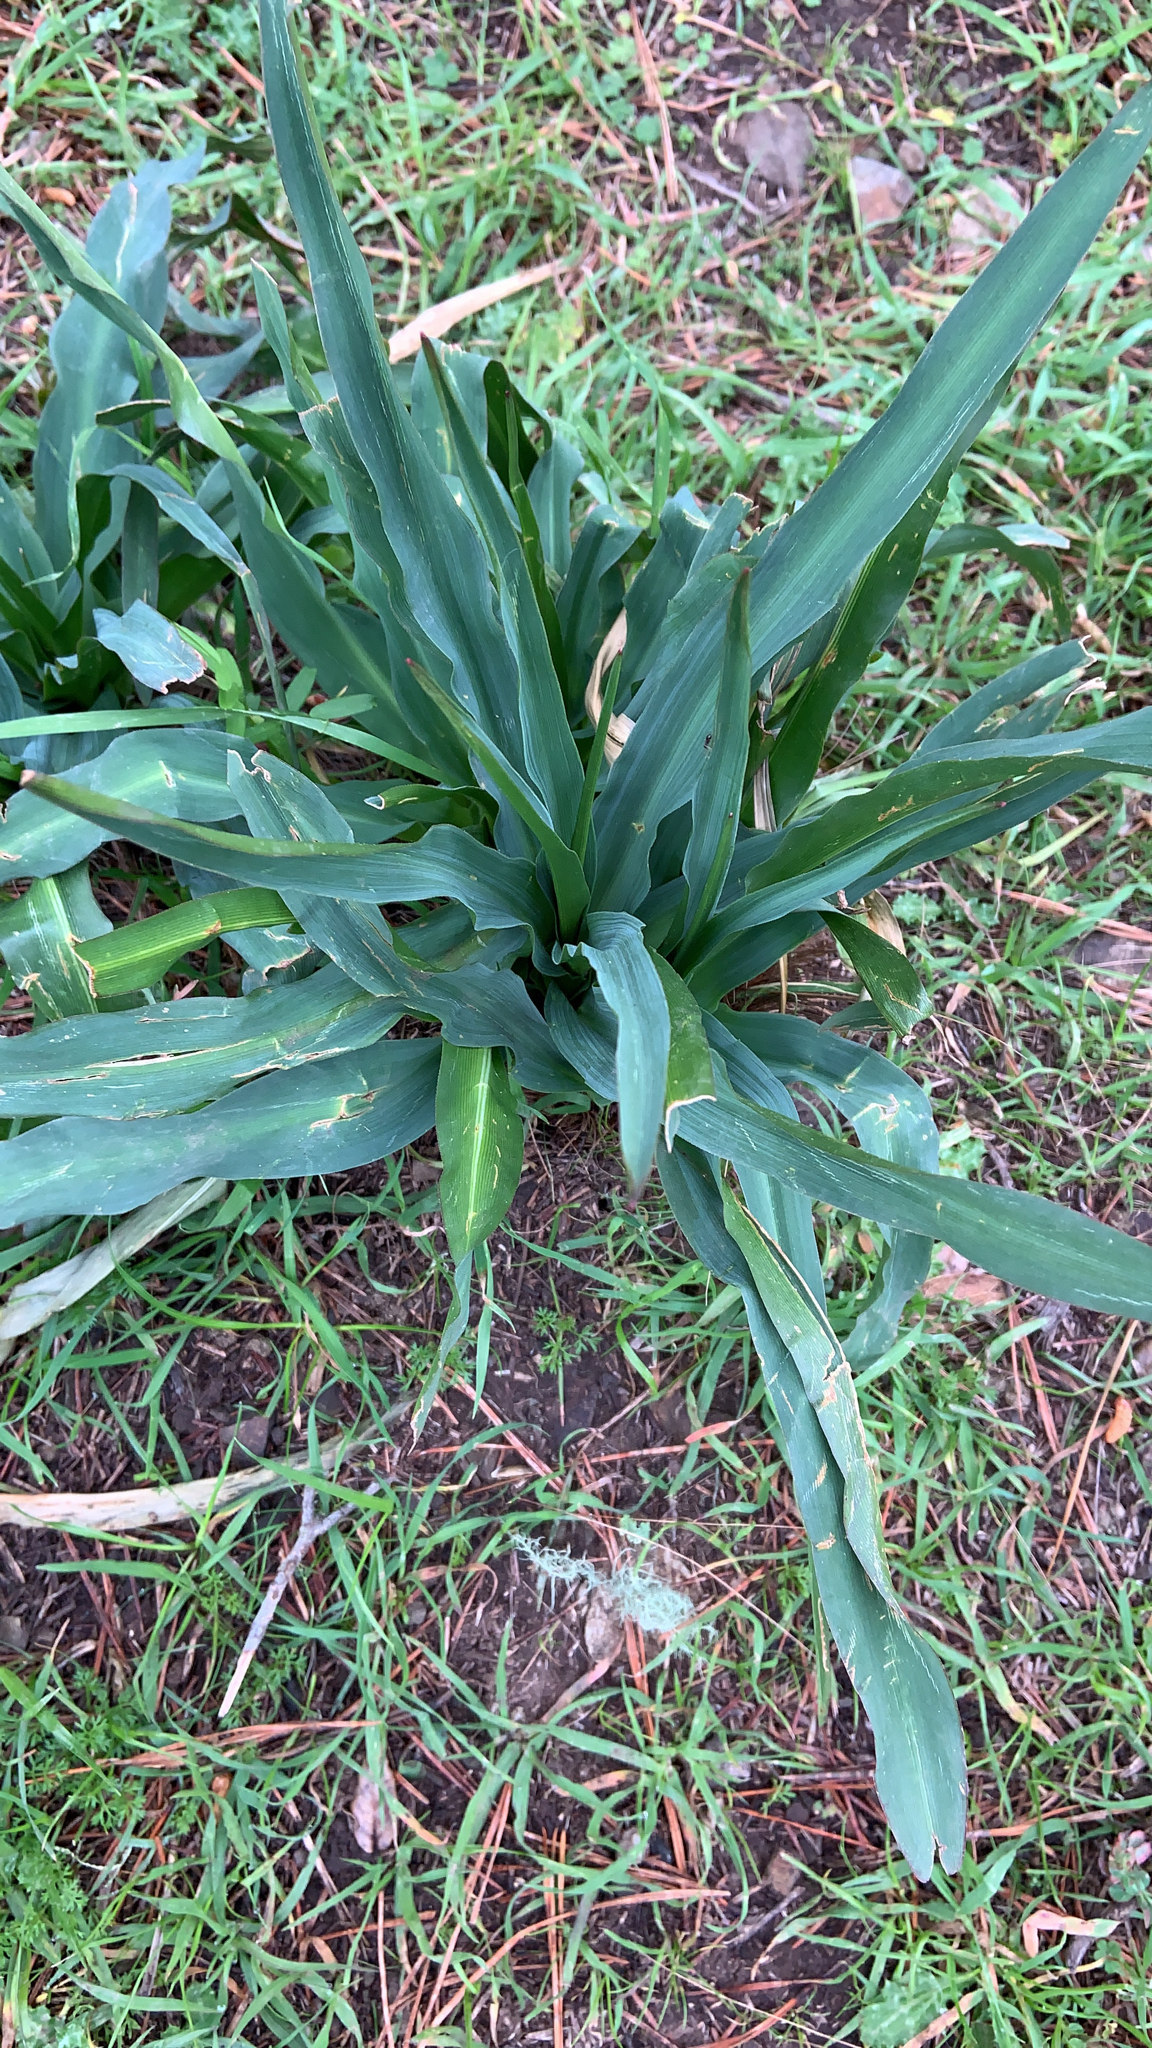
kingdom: Plantae
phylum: Tracheophyta
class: Liliopsida
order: Asparagales
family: Asparagaceae
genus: Chlorogalum
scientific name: Chlorogalum pomeridianum
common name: Amole
